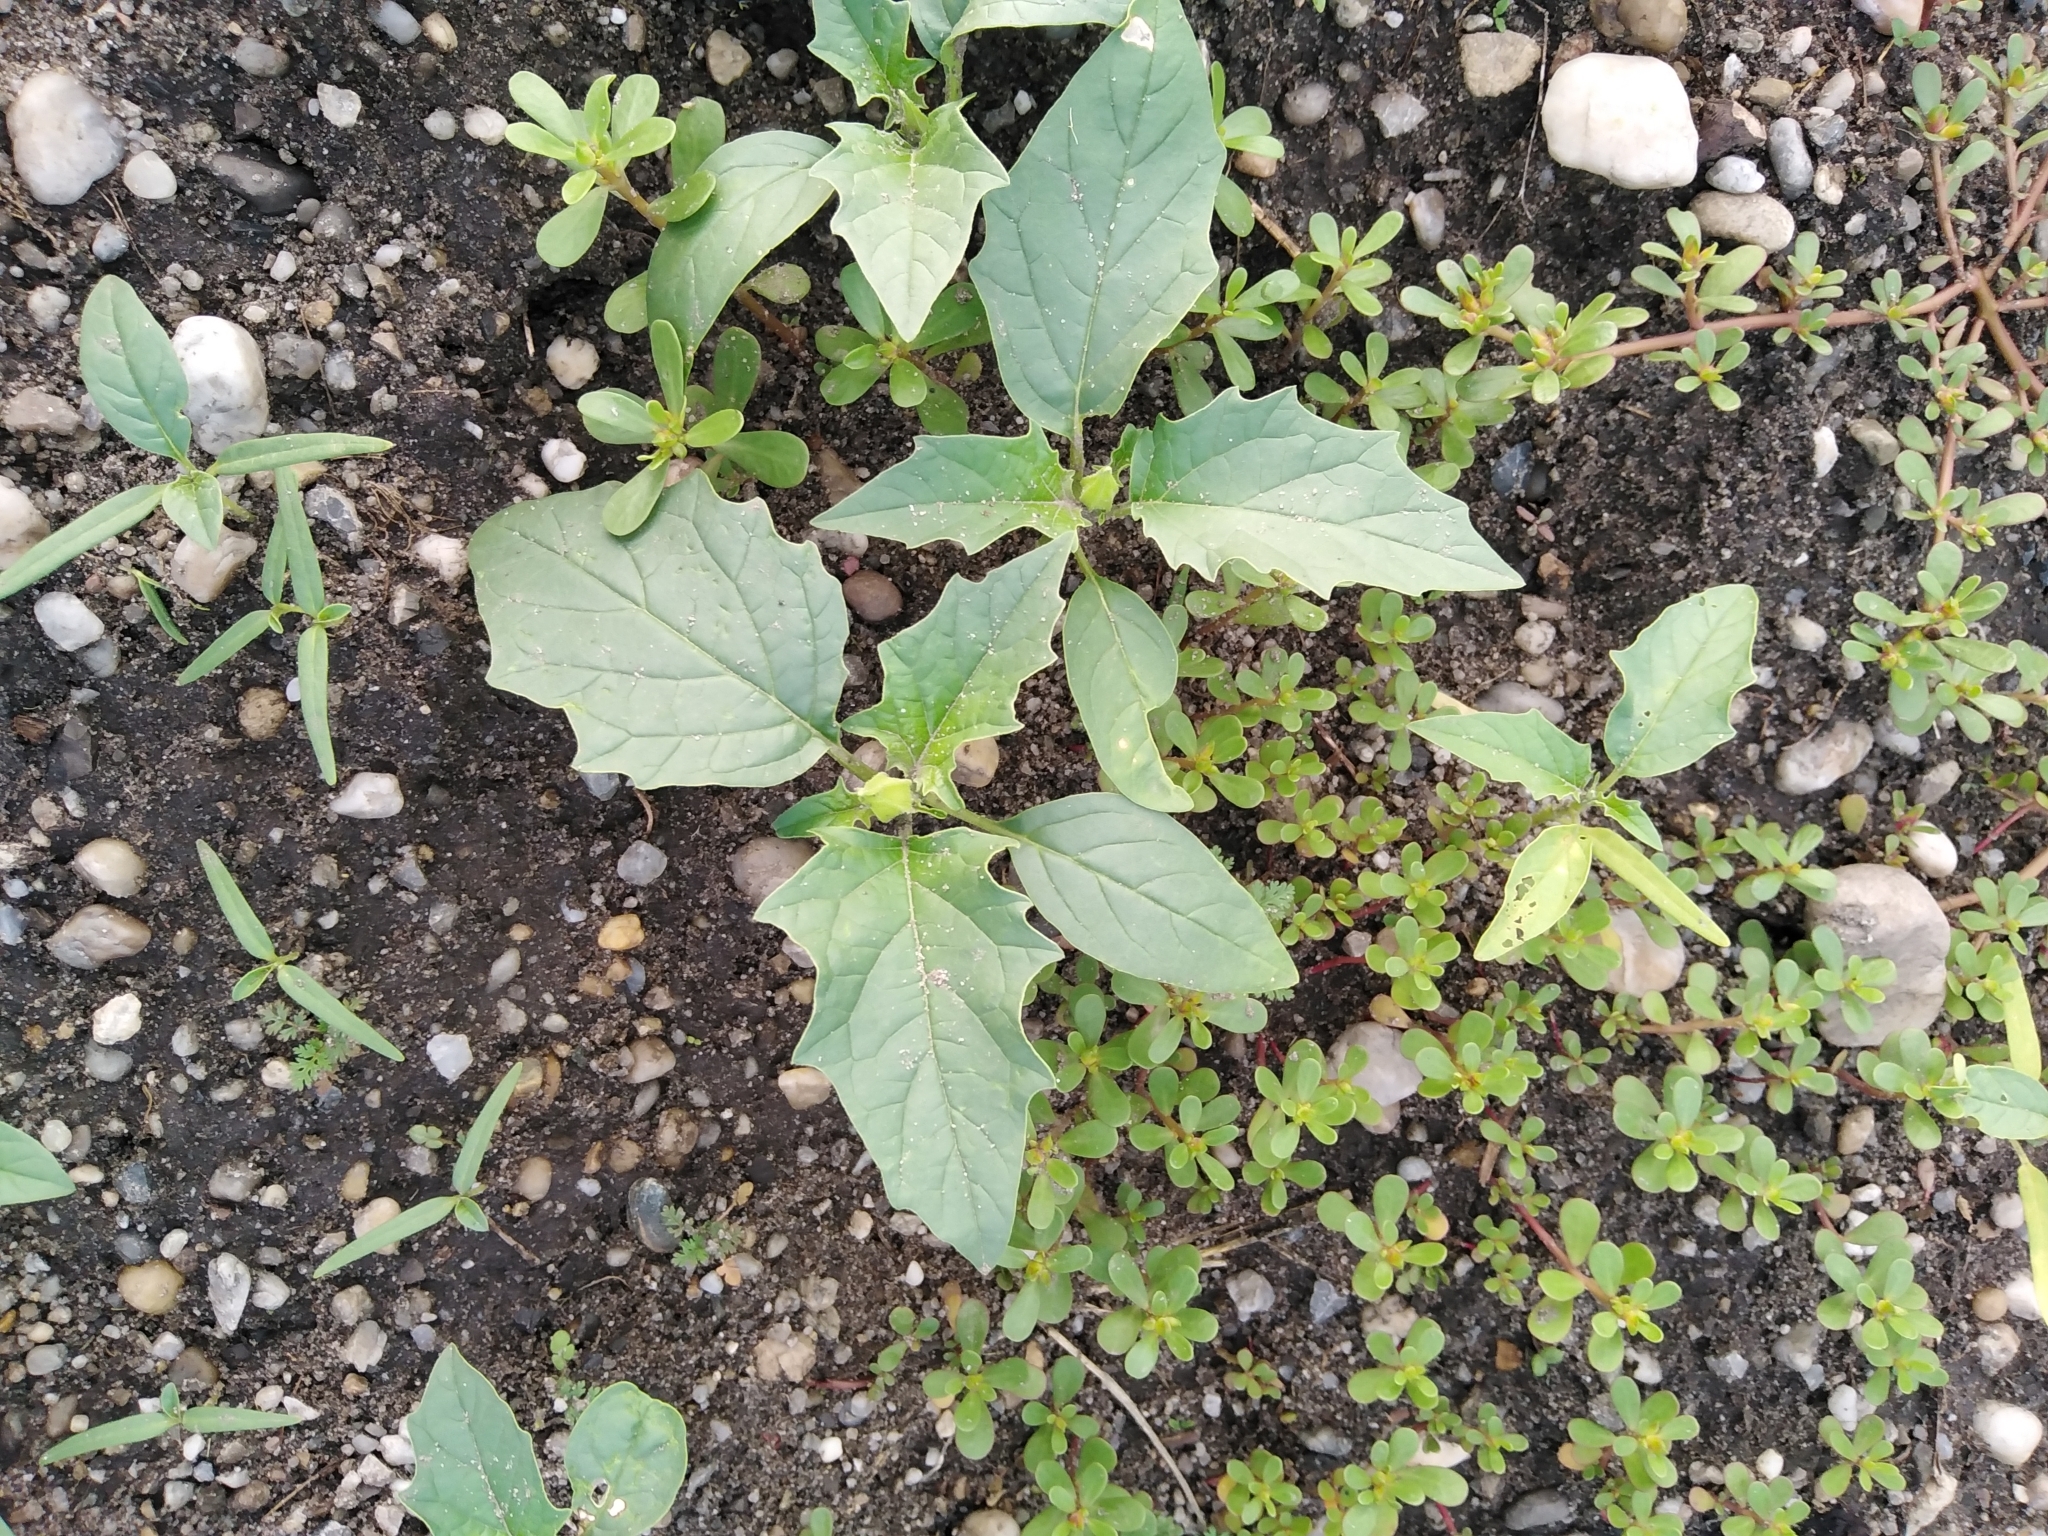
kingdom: Plantae
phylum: Tracheophyta
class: Magnoliopsida
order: Solanales
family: Solanaceae
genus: Datura
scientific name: Datura stramonium
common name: Thorn-apple
